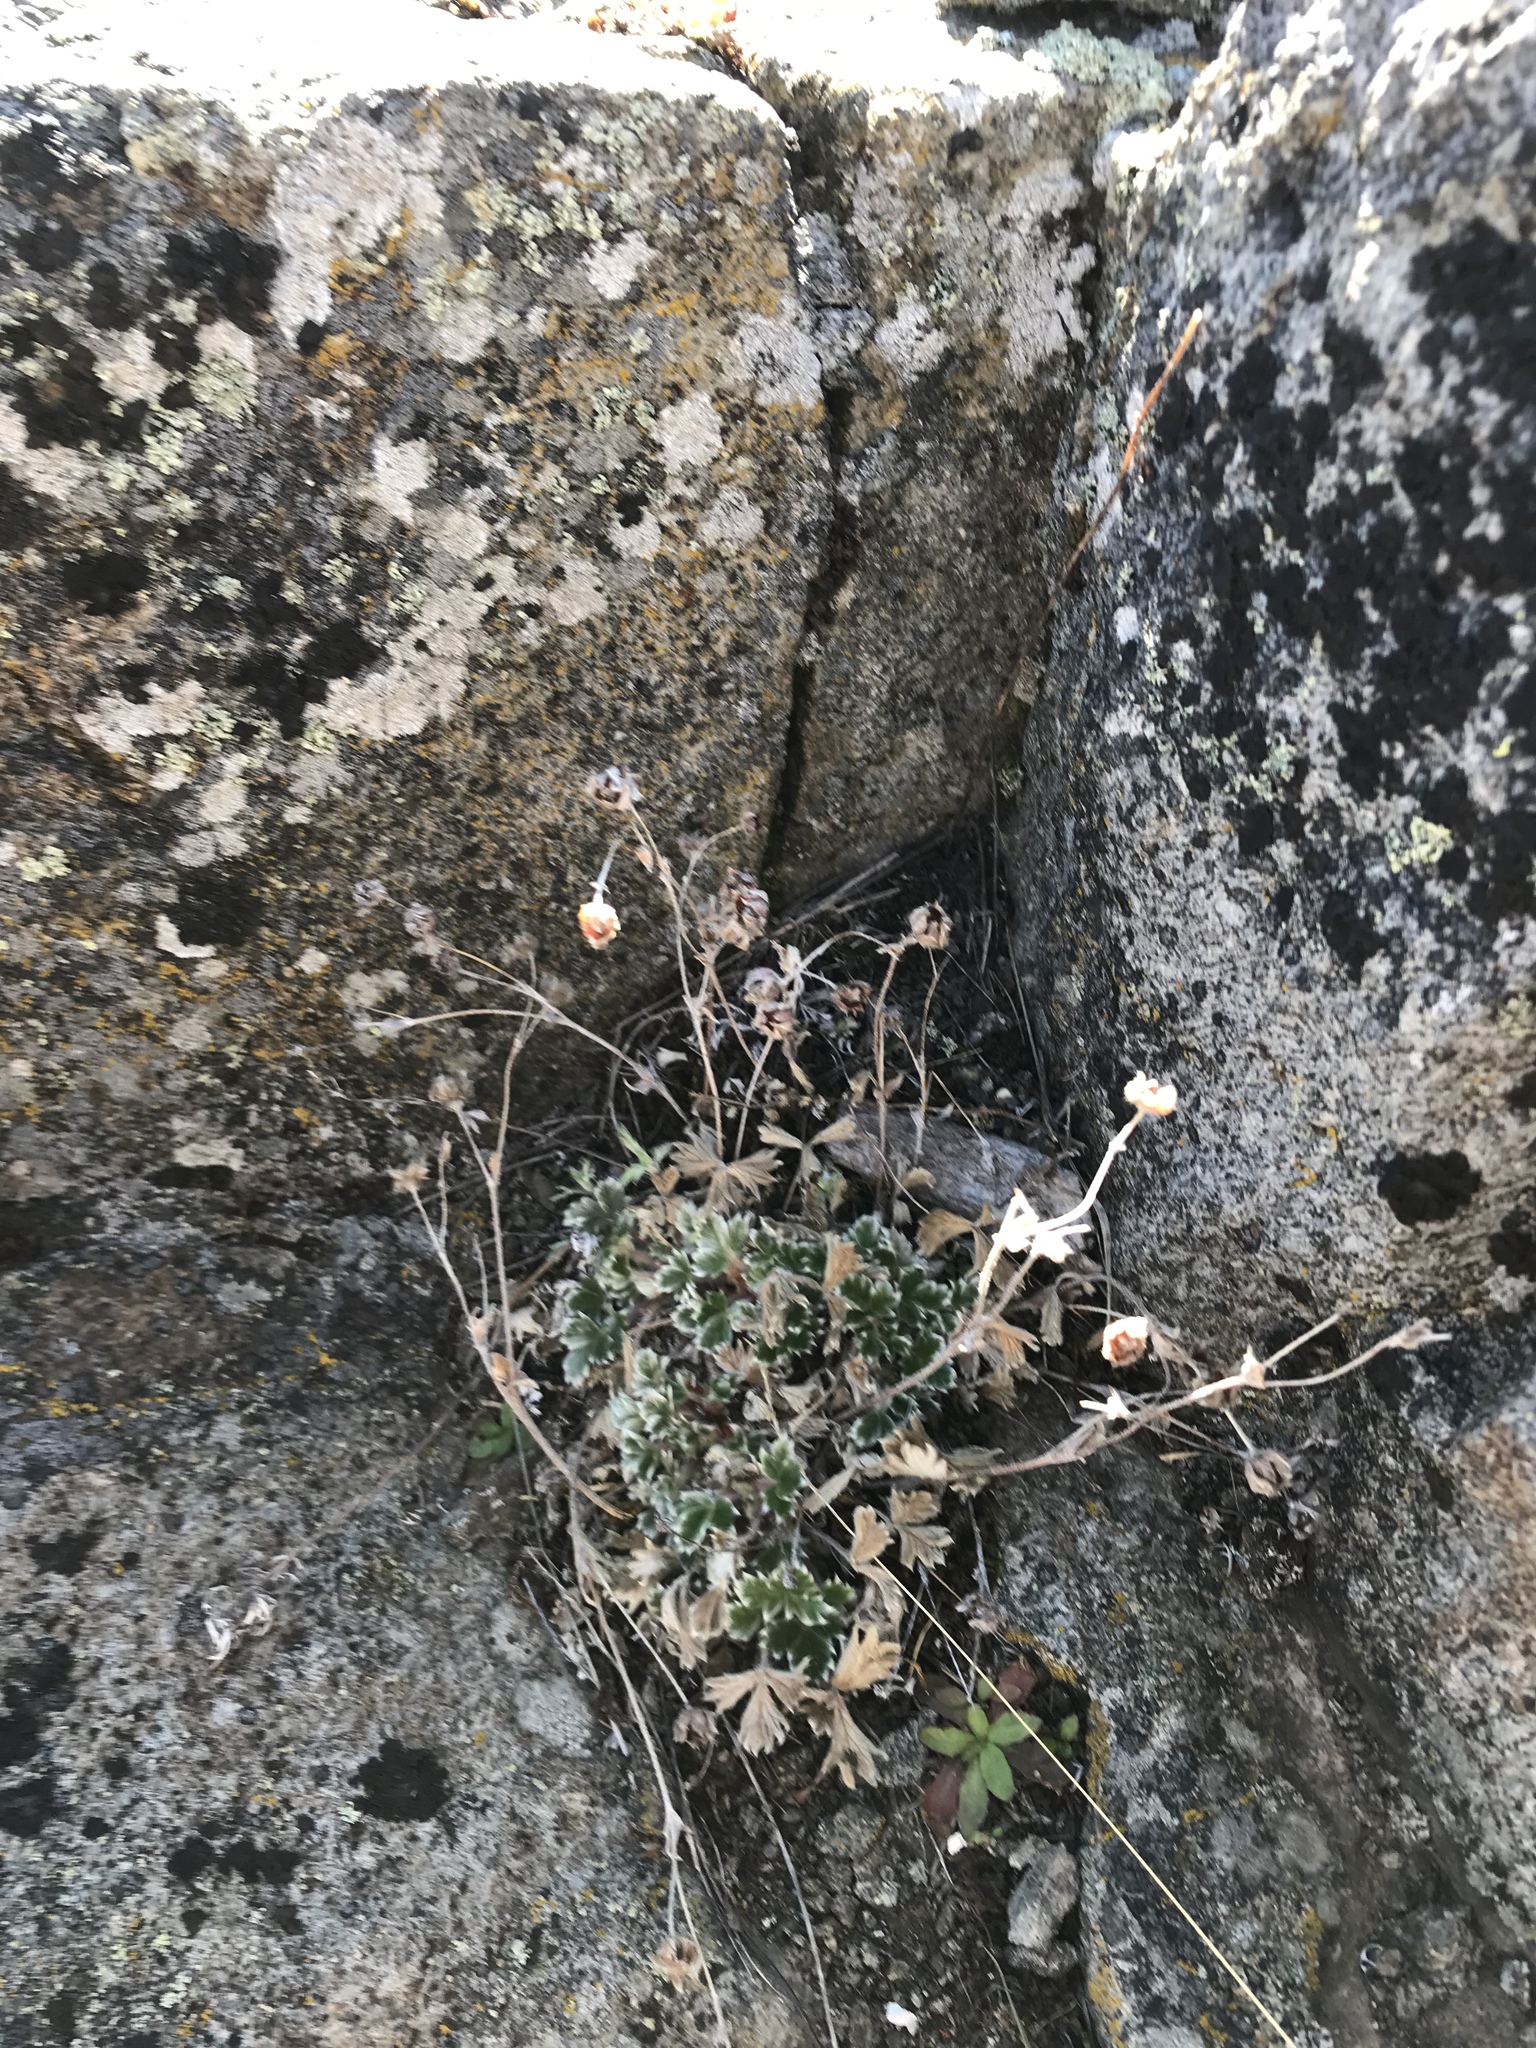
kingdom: Plantae
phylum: Tracheophyta
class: Magnoliopsida
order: Rosales
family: Rosaceae
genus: Potentilla
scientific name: Potentilla villosa
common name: Northern cinquefoil
